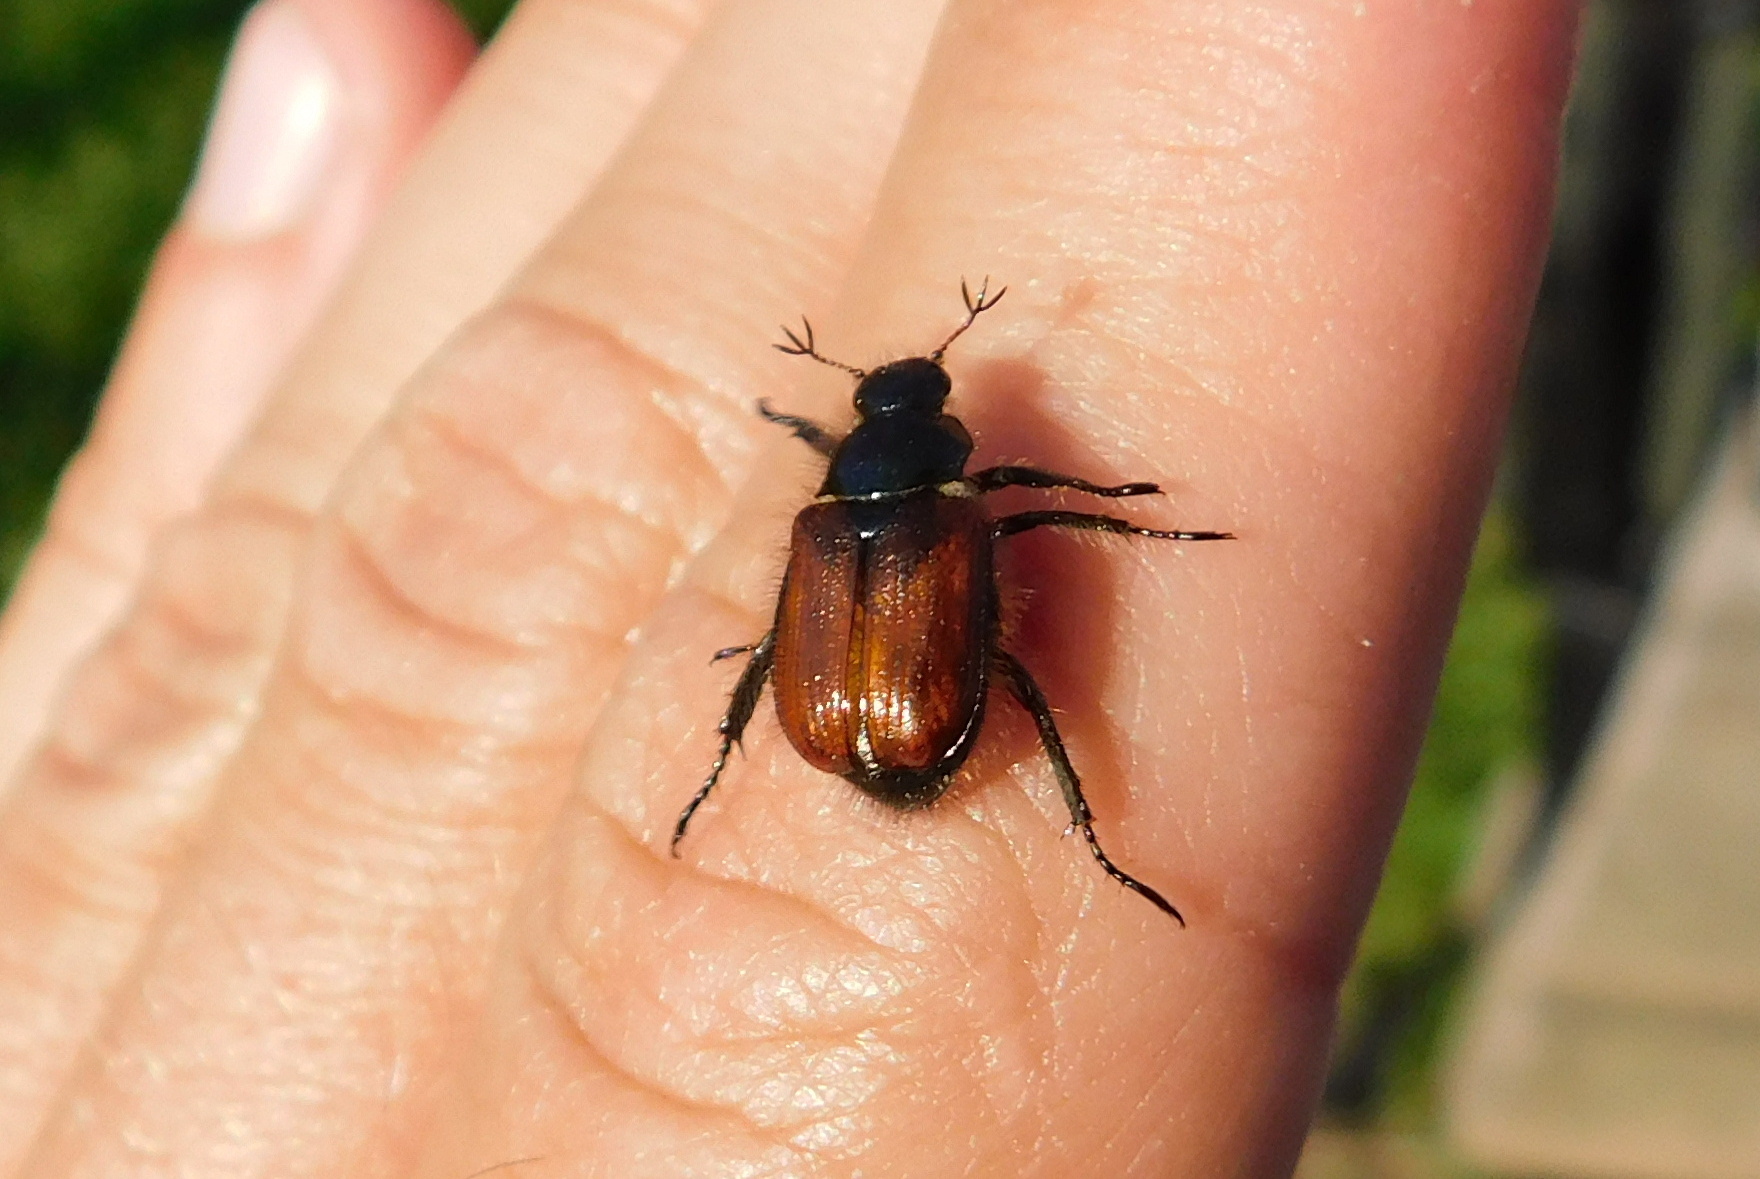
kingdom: Animalia
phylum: Arthropoda
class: Insecta
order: Coleoptera
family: Scarabaeidae
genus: Phyllopertha
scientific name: Phyllopertha horticola
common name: Garden chafer
